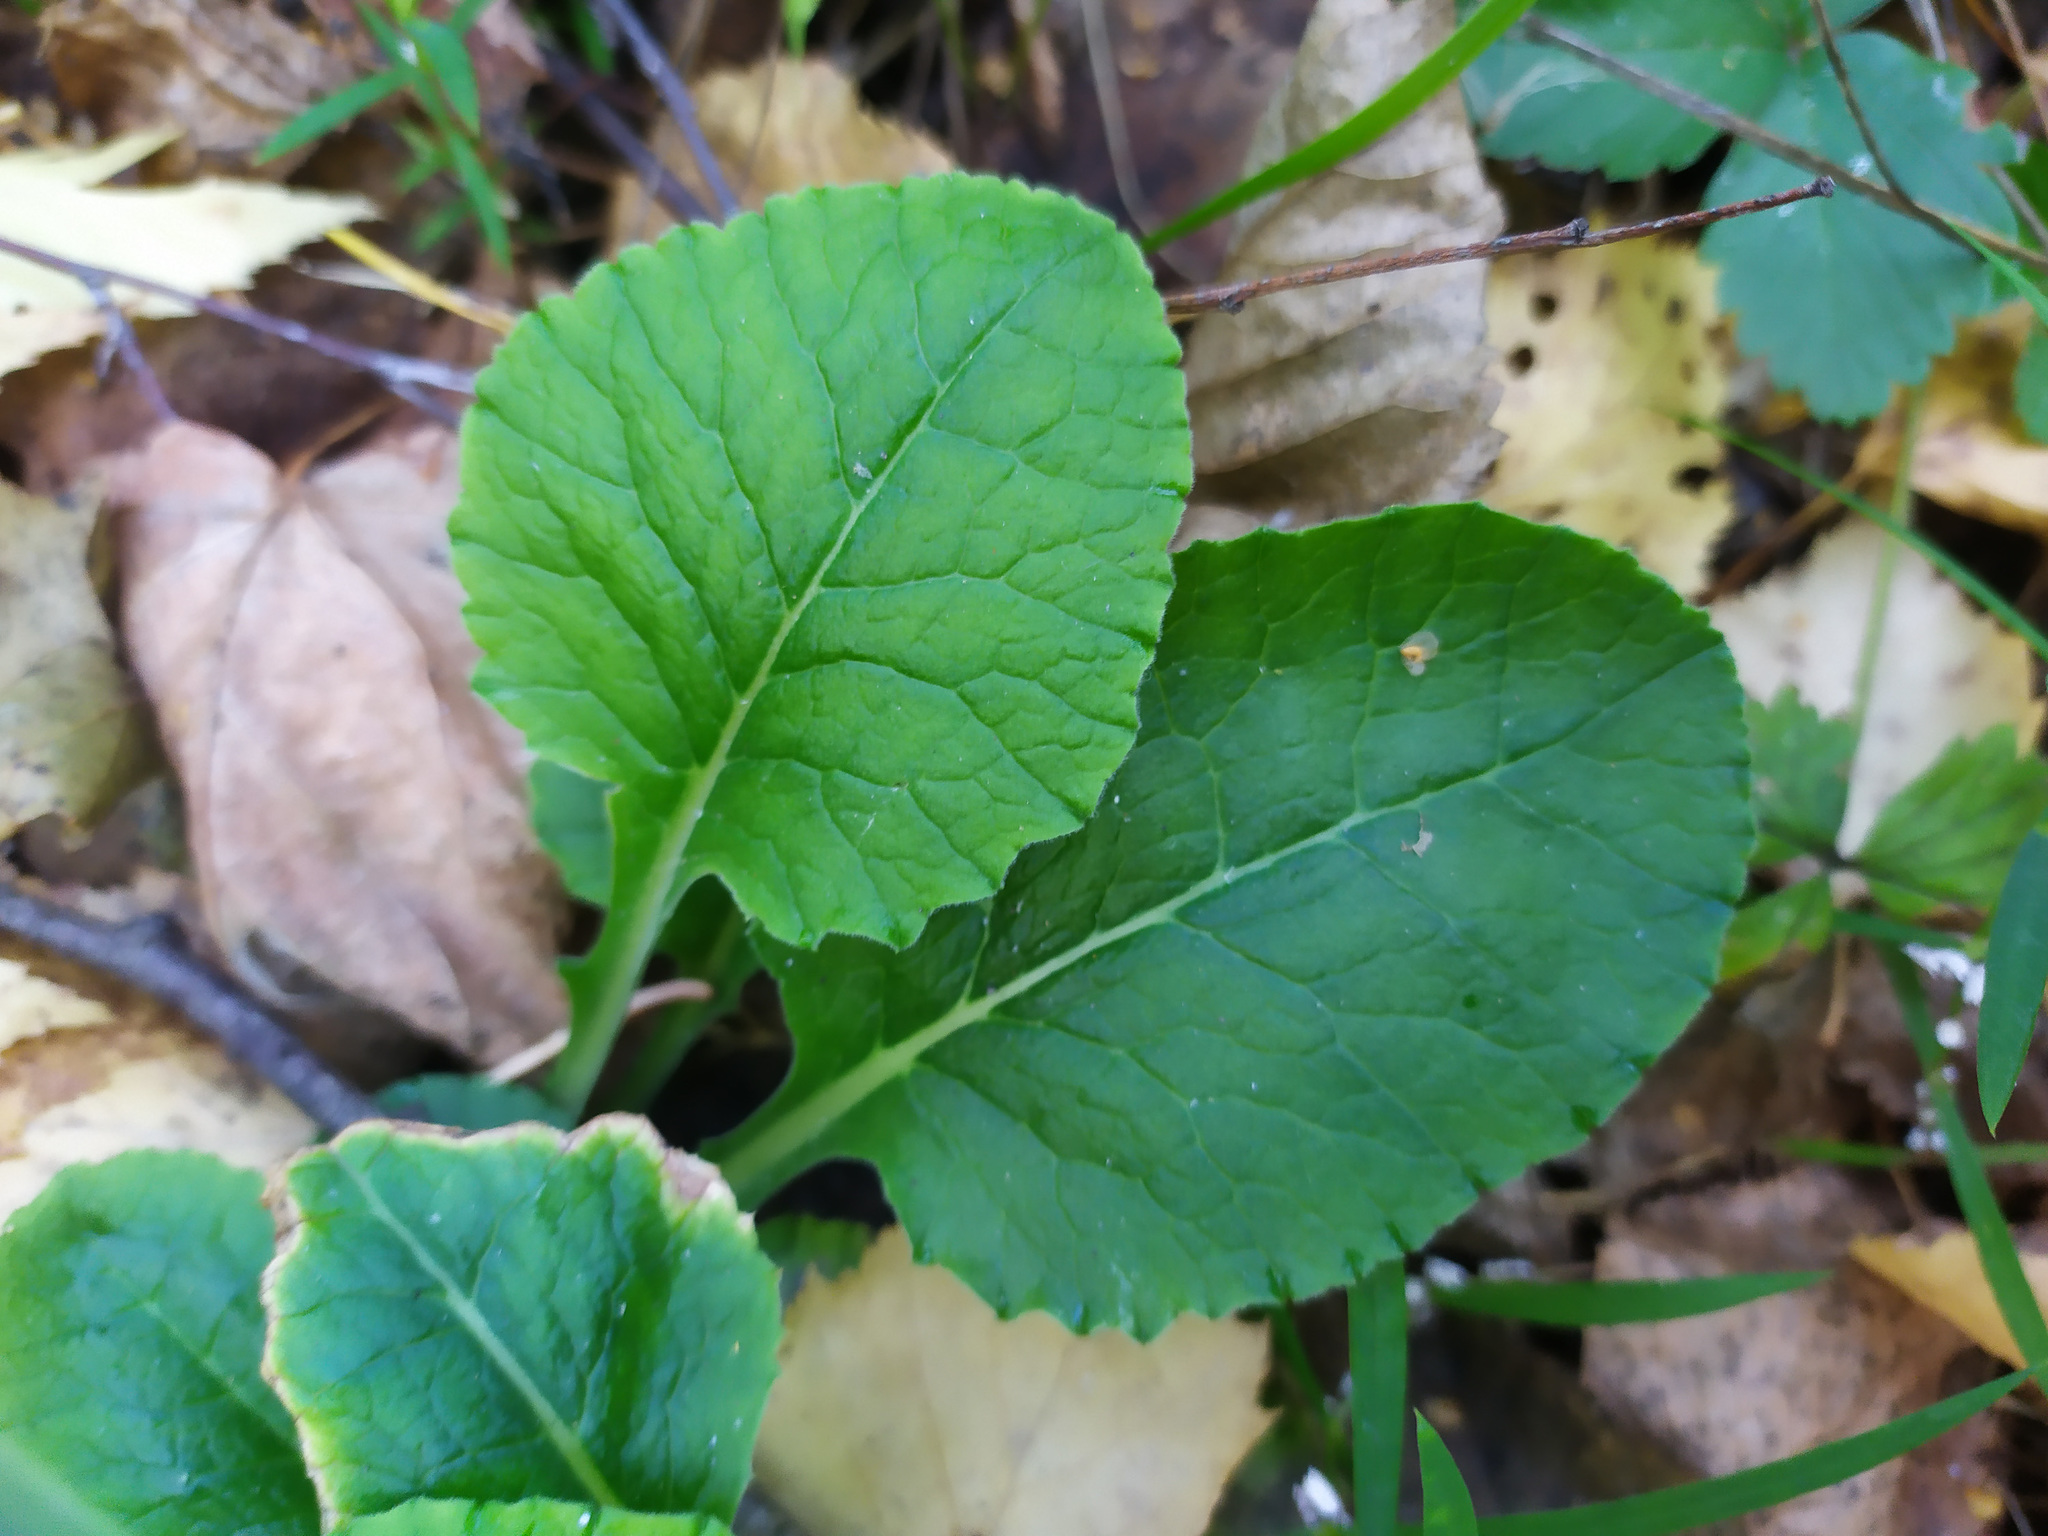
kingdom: Plantae
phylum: Tracheophyta
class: Magnoliopsida
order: Ericales
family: Primulaceae
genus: Primula
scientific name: Primula veris
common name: Cowslip
